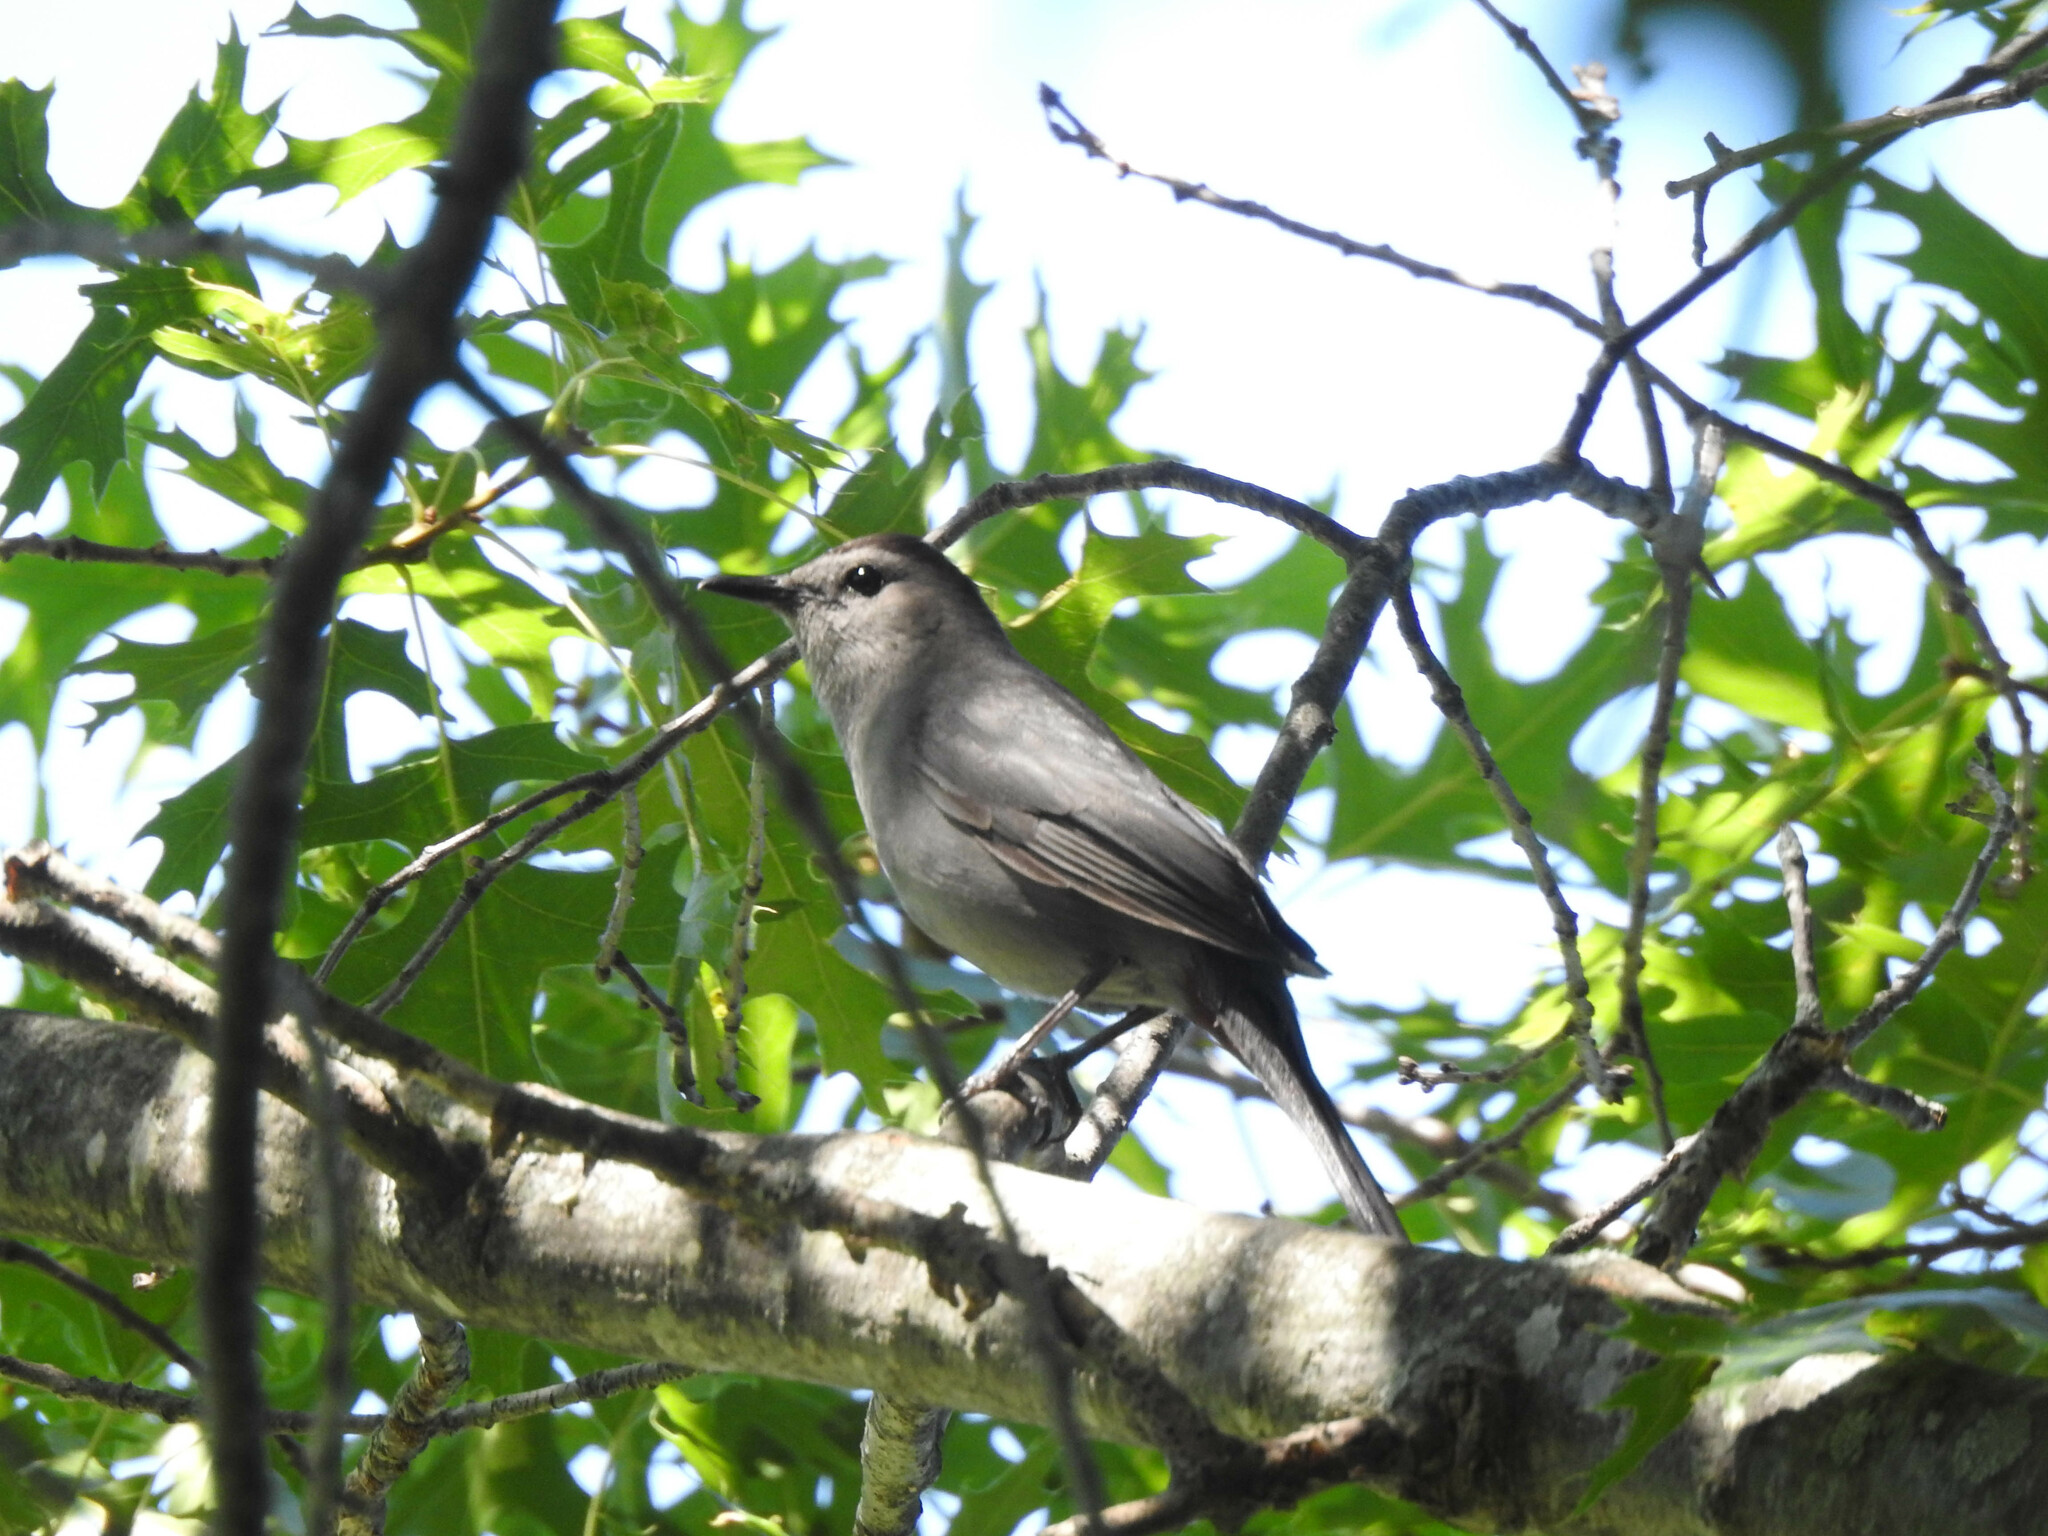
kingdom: Animalia
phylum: Chordata
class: Aves
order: Passeriformes
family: Mimidae
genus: Dumetella
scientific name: Dumetella carolinensis
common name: Gray catbird
